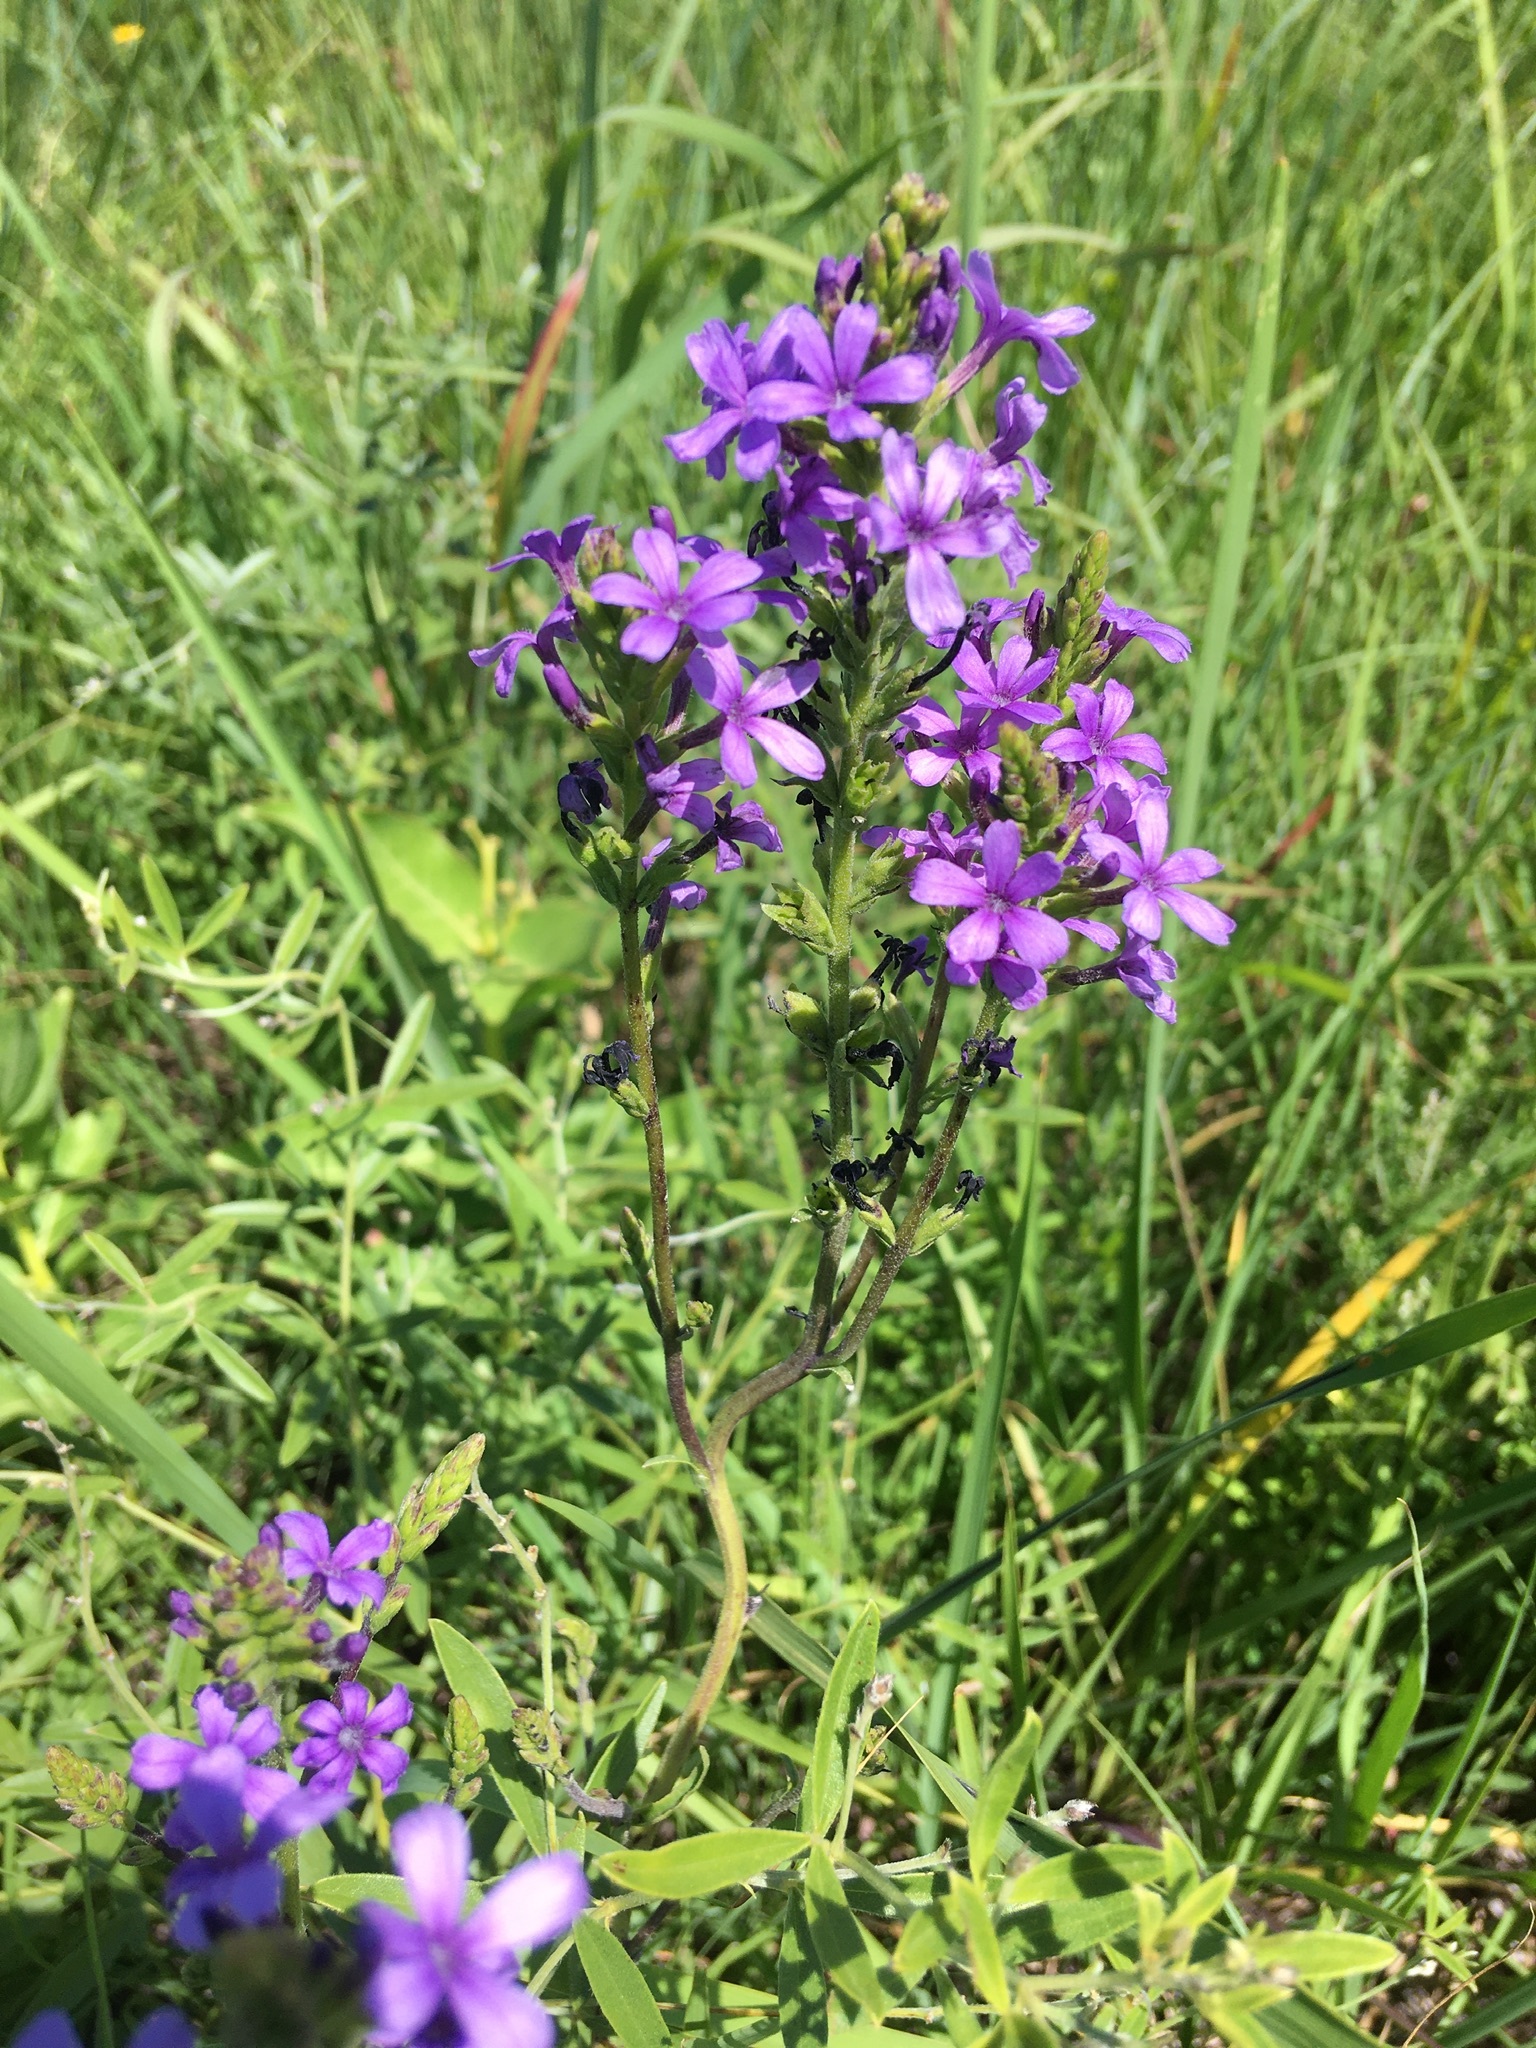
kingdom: Plantae
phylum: Tracheophyta
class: Magnoliopsida
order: Lamiales
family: Orobanchaceae
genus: Buchnera
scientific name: Buchnera americana
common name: American bluehearts
